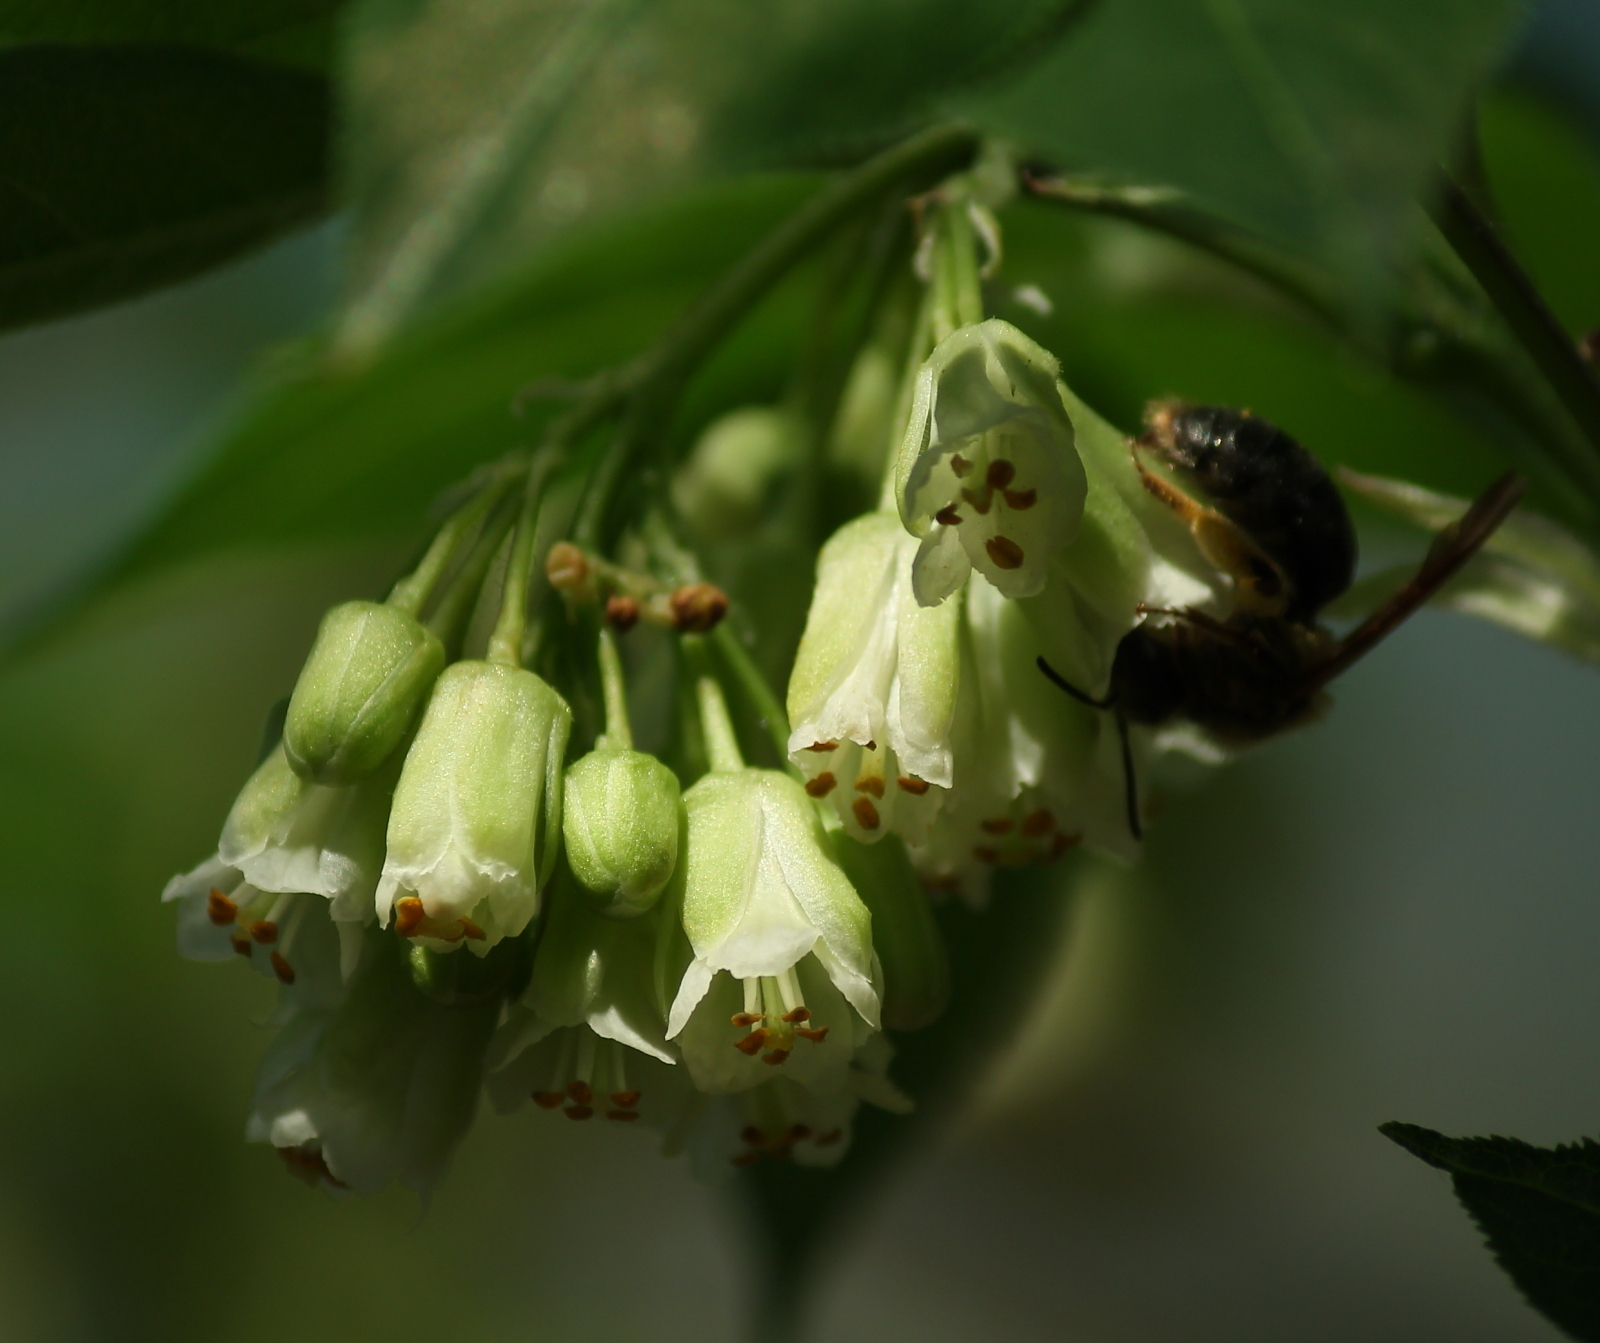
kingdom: Plantae
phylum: Tracheophyta
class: Magnoliopsida
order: Crossosomatales
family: Staphyleaceae
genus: Staphylea
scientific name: Staphylea trifolia
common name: American bladdernut
